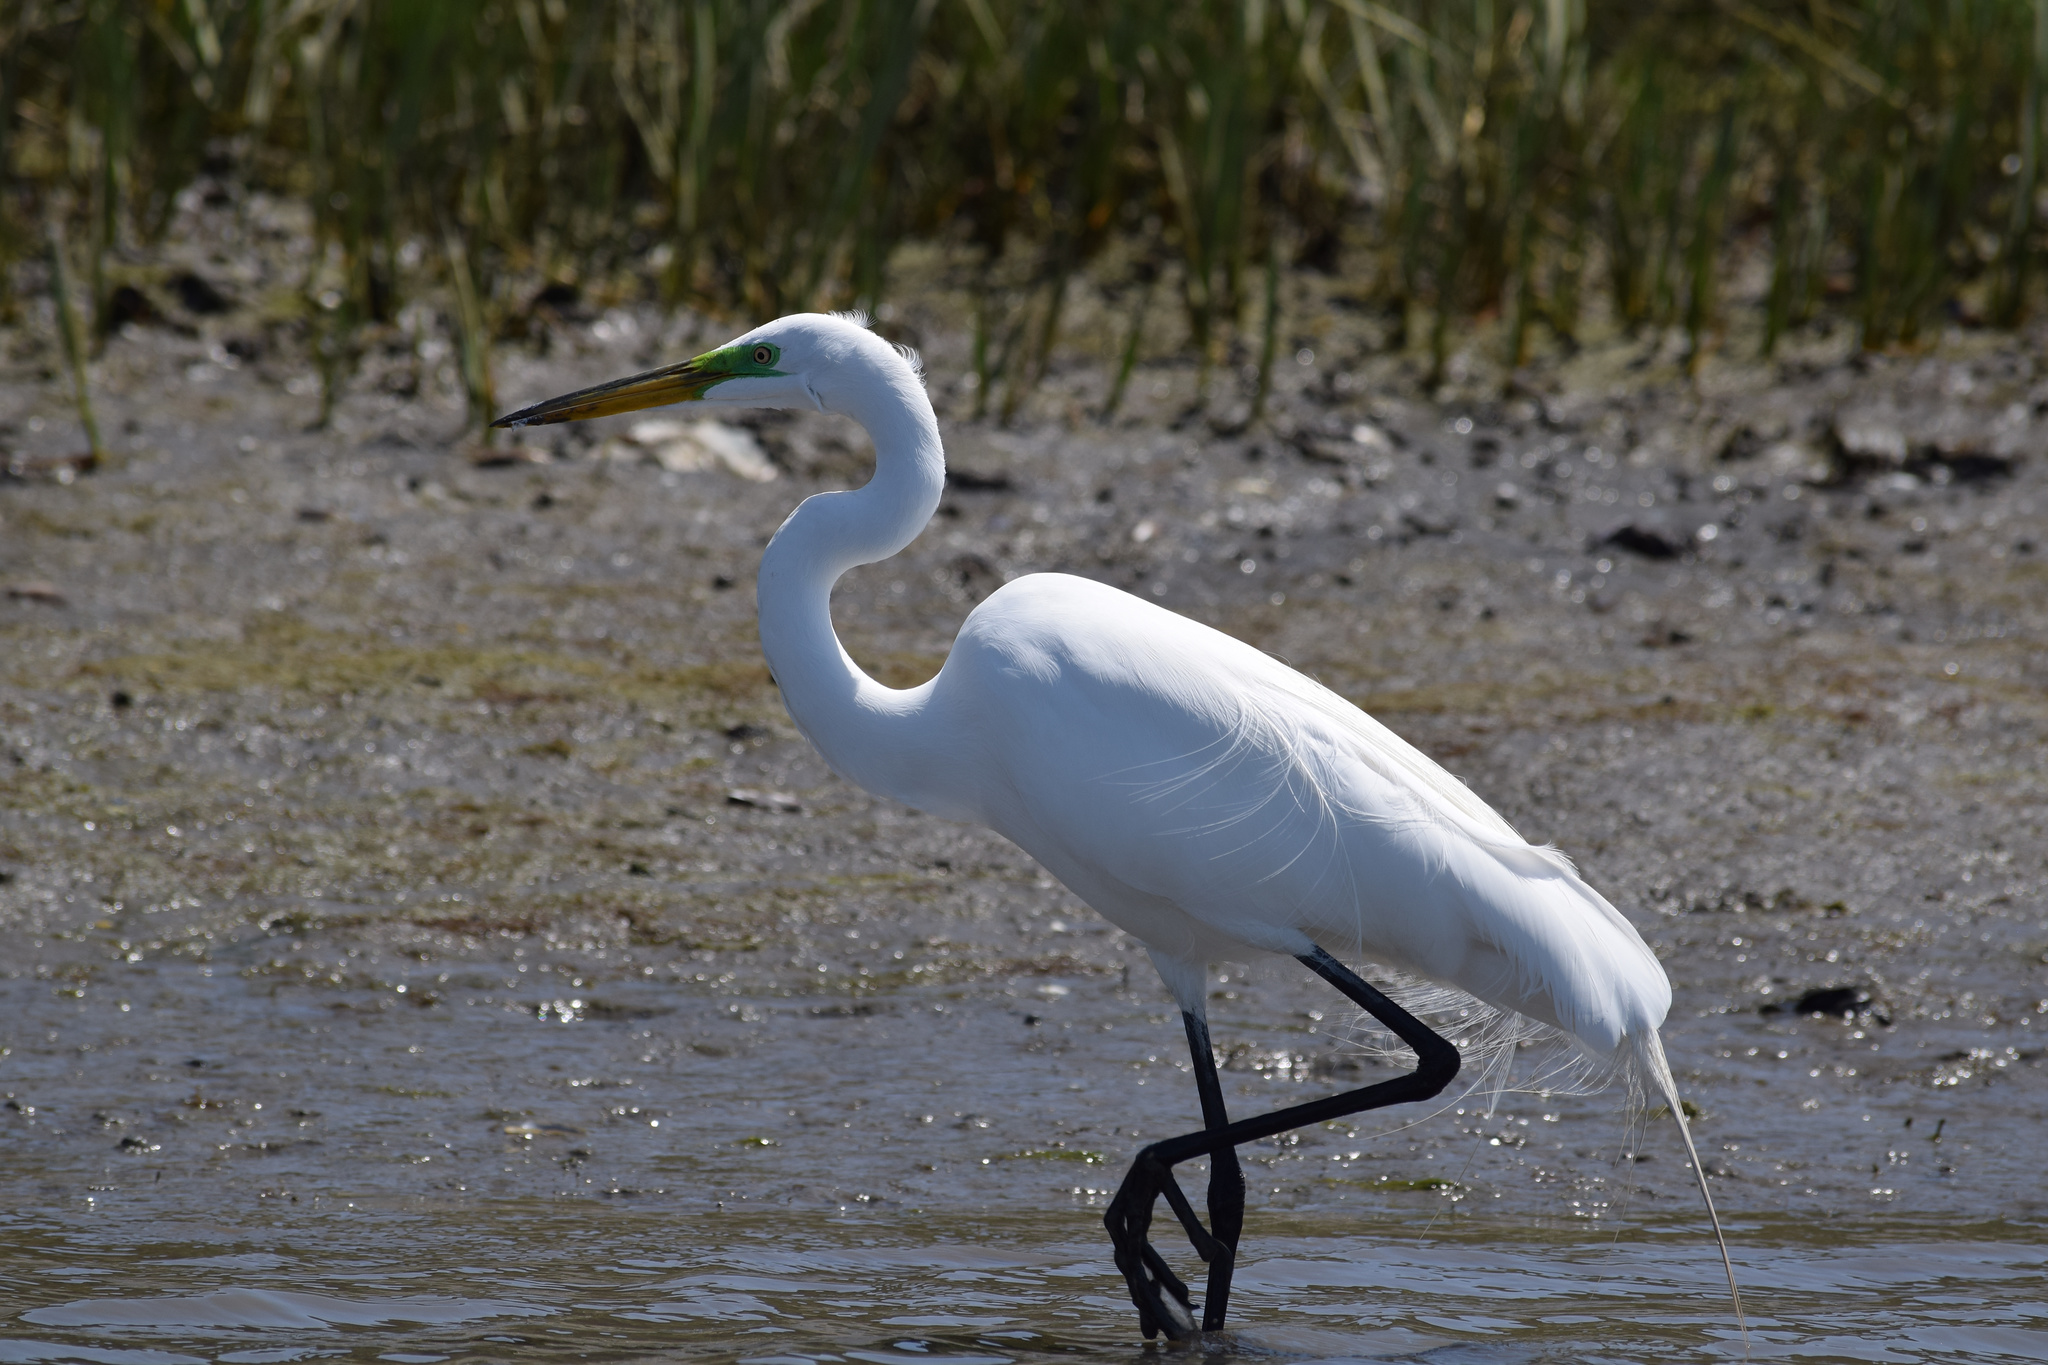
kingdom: Animalia
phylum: Chordata
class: Aves
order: Pelecaniformes
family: Ardeidae
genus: Ardea
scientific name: Ardea alba
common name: Great egret
